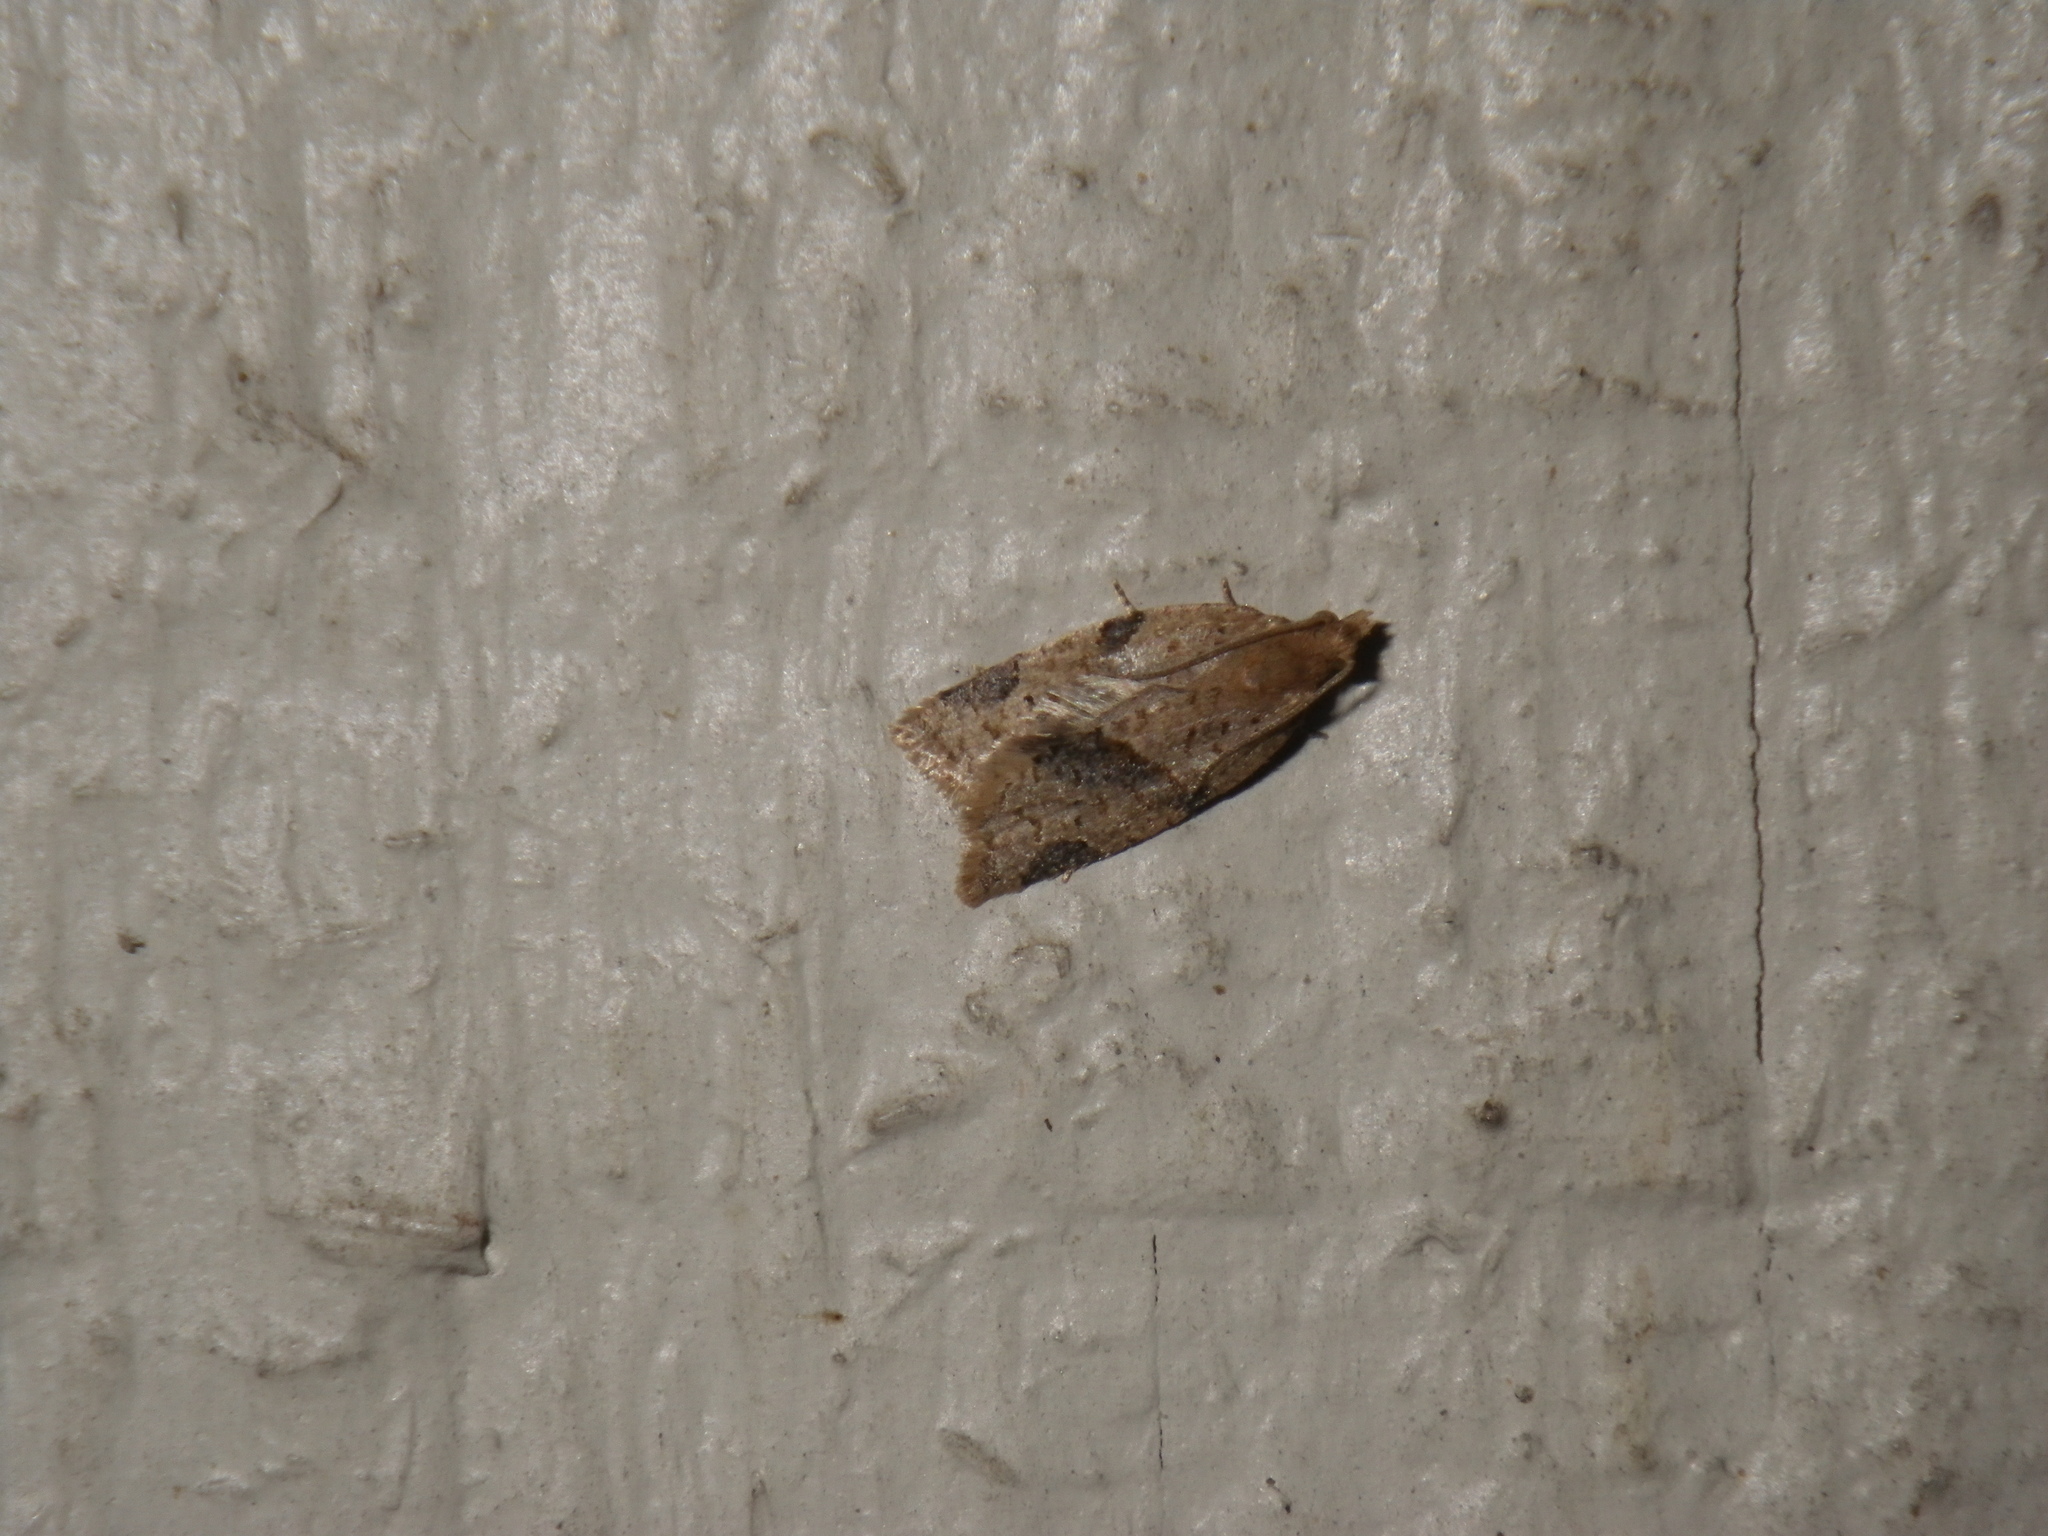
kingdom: Animalia
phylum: Arthropoda
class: Insecta
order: Lepidoptera
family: Tortricidae
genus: Clepsis
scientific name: Clepsis peritana
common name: Garden tortrix
